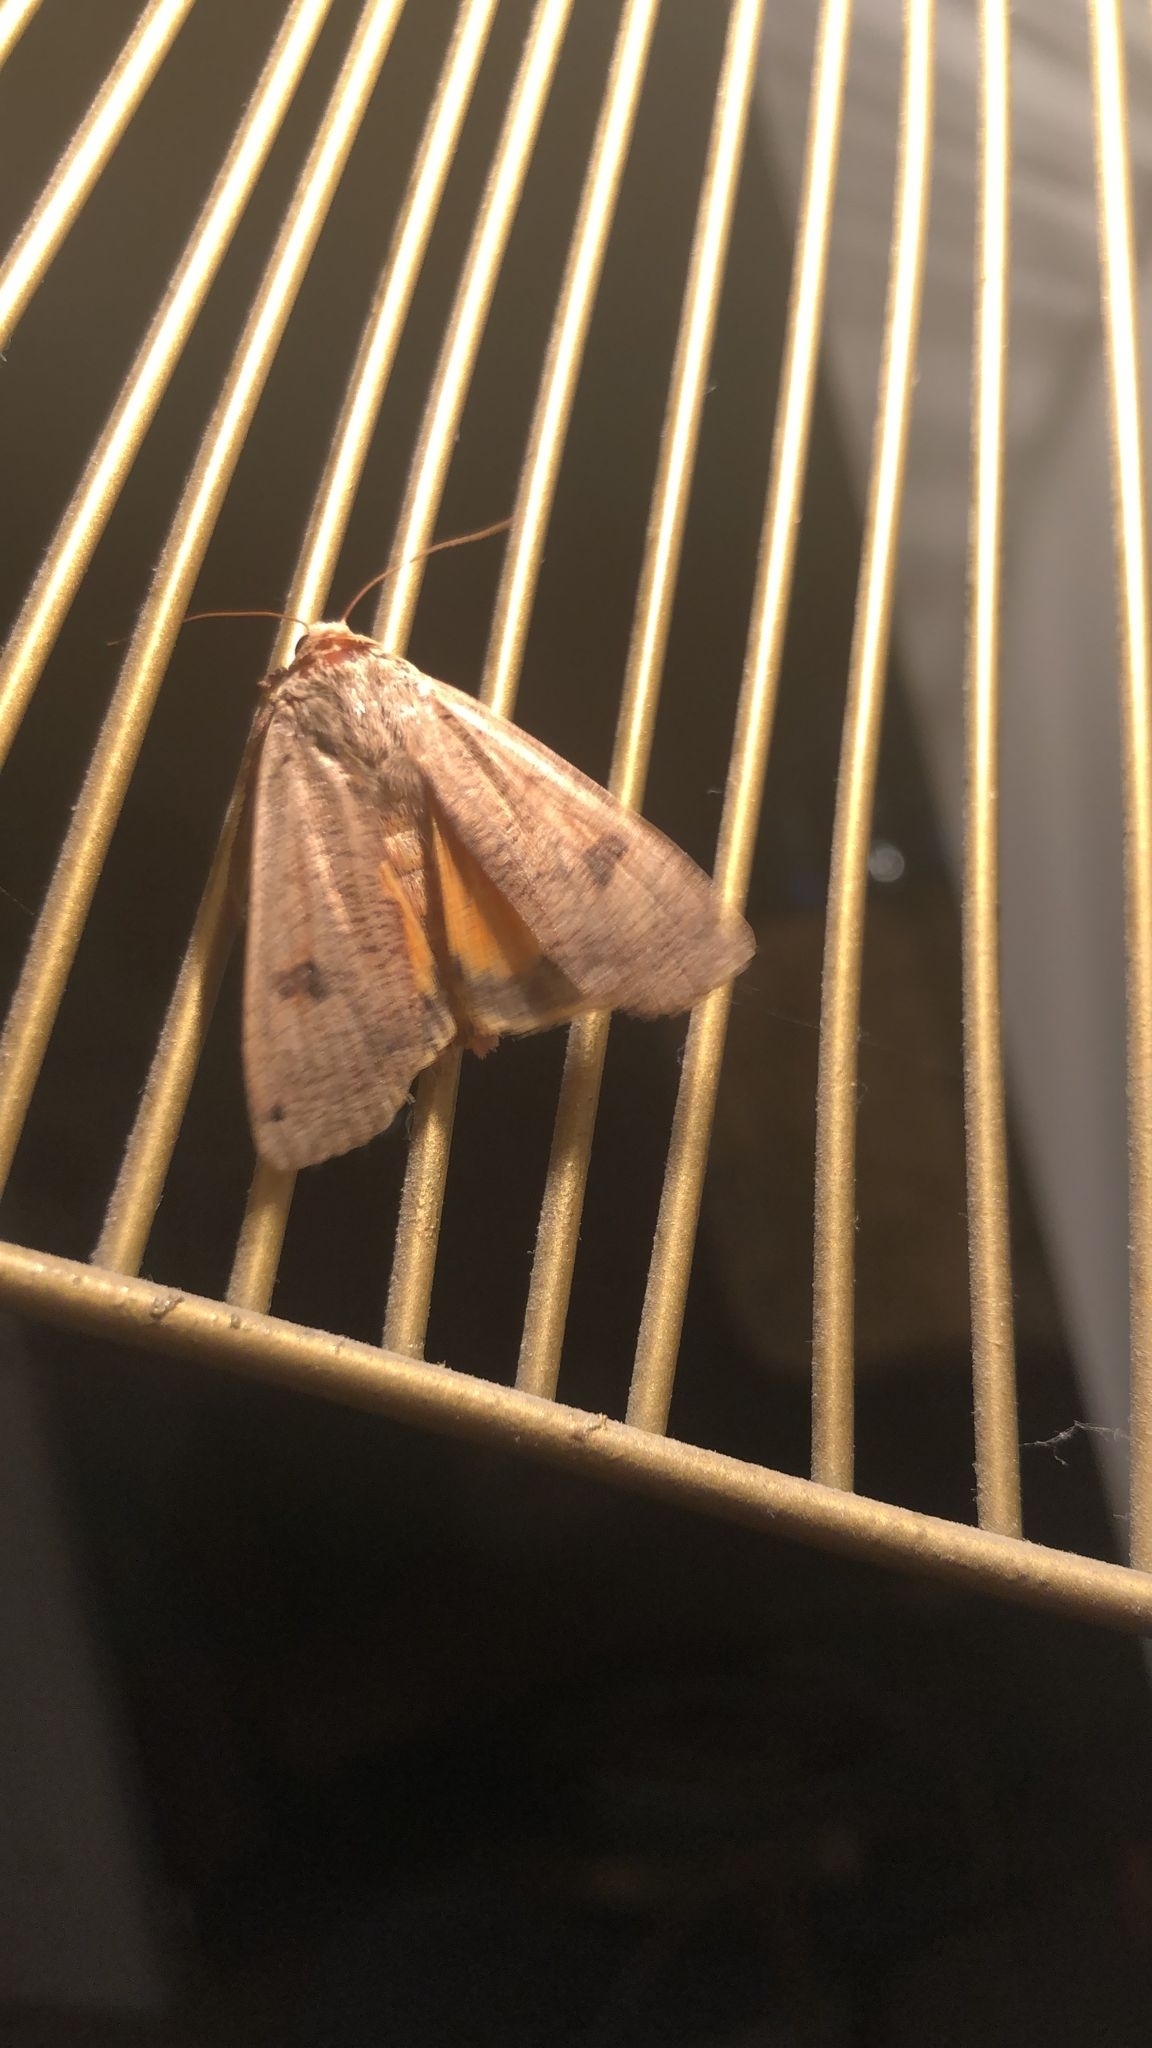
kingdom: Animalia
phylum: Arthropoda
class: Insecta
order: Lepidoptera
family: Noctuidae
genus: Noctua
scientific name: Noctua pronuba
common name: Large yellow underwing
